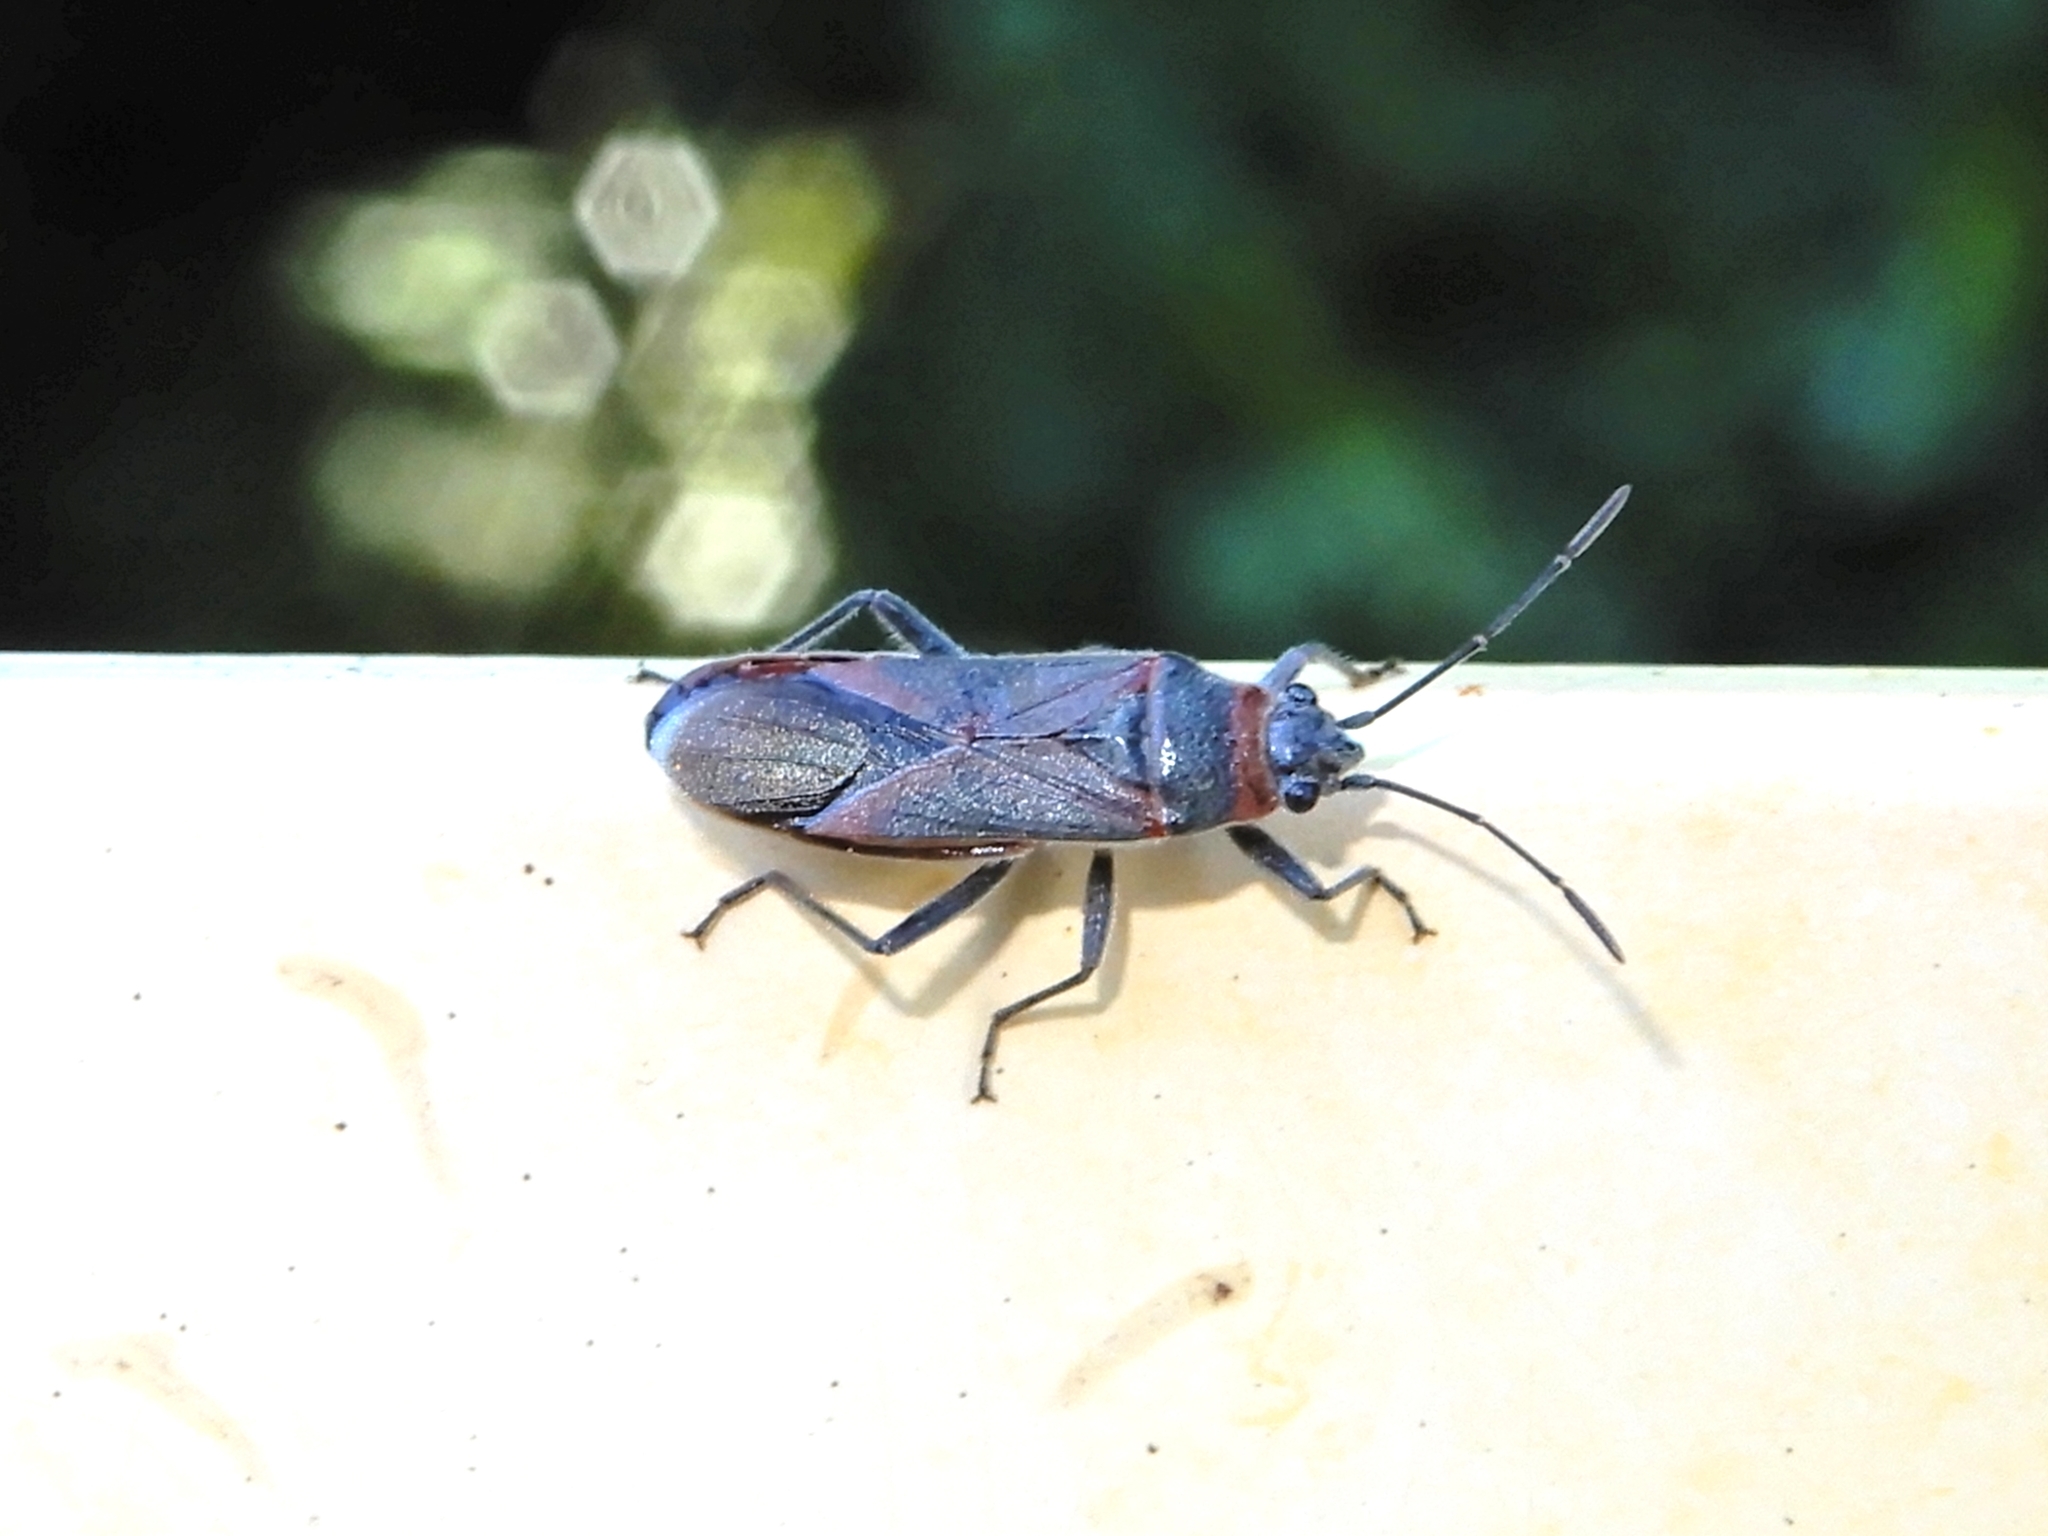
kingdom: Animalia
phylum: Arthropoda
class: Insecta
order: Hemiptera
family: Lygaeidae
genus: Arocatus
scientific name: Arocatus rusticus
